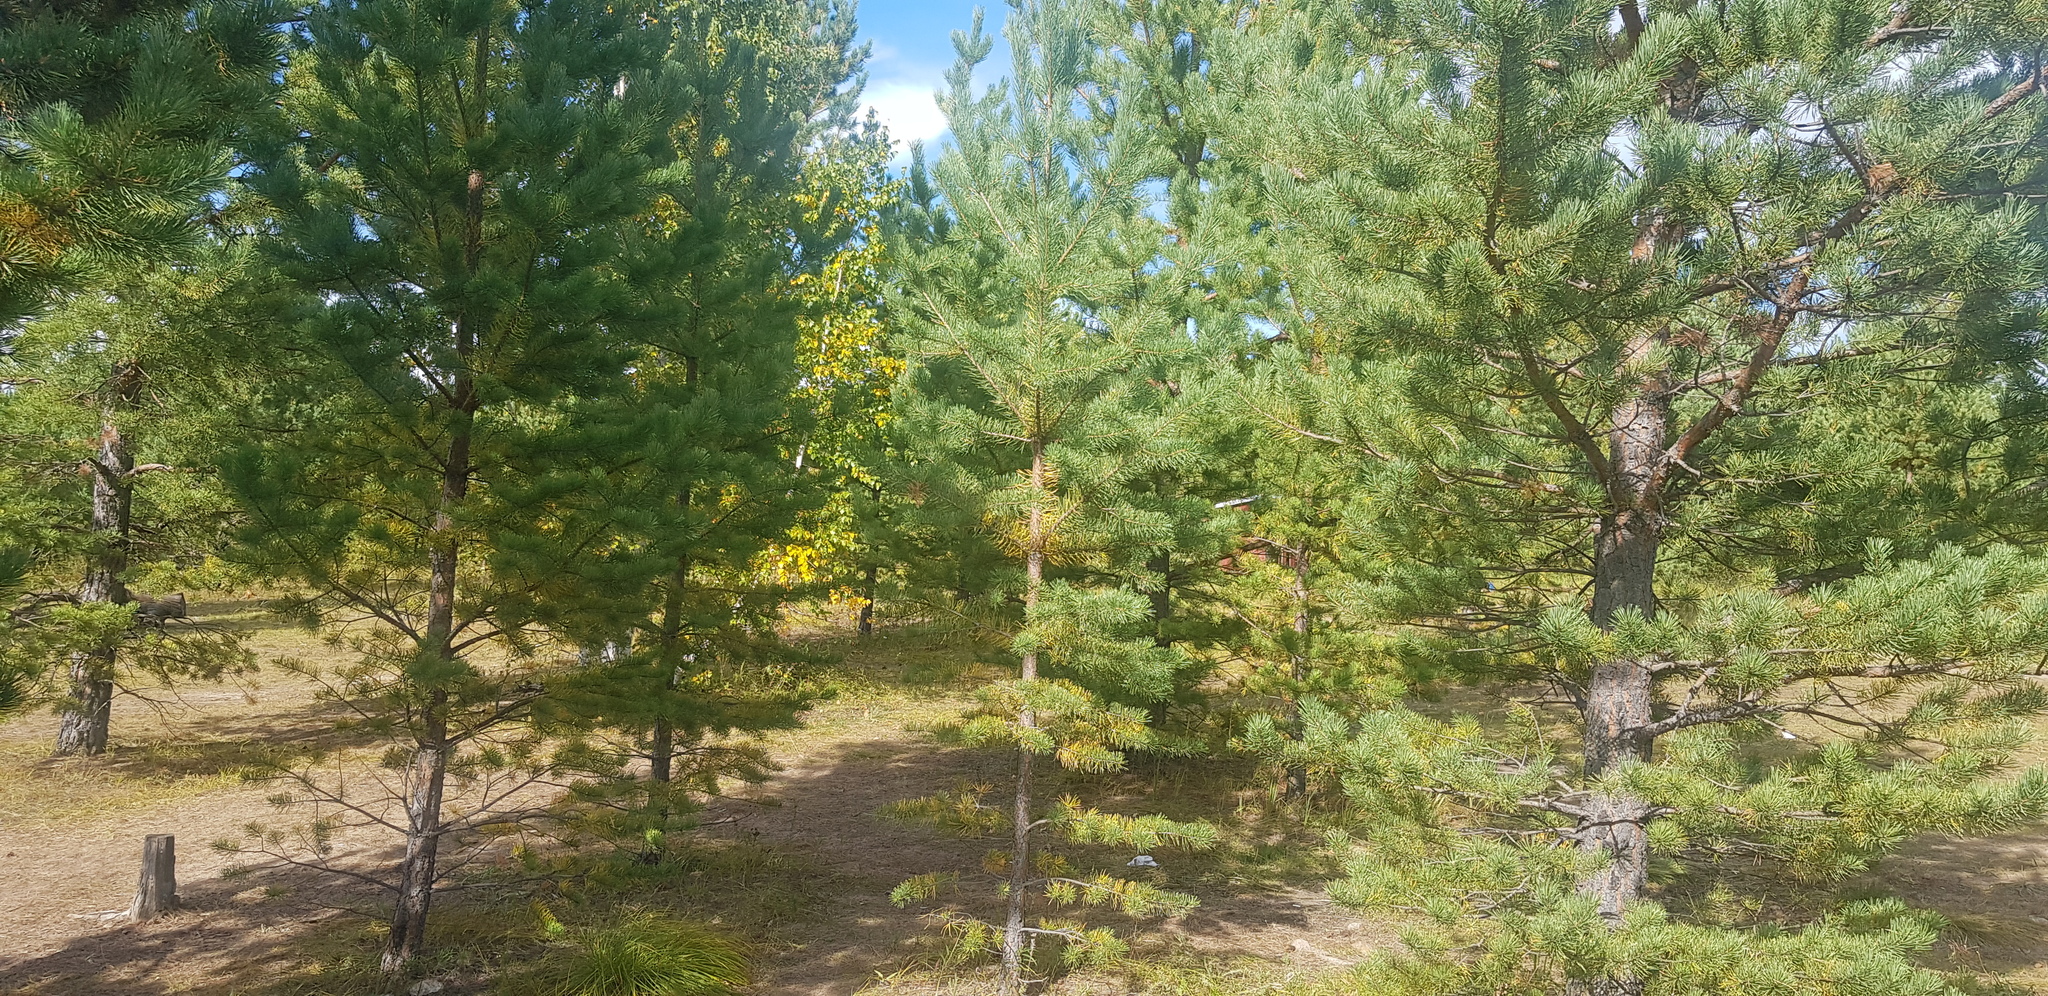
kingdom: Plantae
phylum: Tracheophyta
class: Pinopsida
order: Pinales
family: Pinaceae
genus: Pinus
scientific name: Pinus sylvestris
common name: Scots pine
